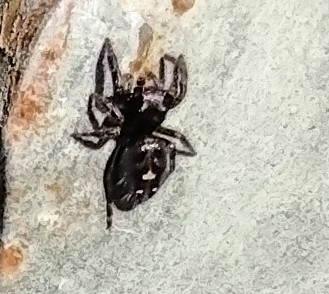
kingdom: Animalia
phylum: Arthropoda
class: Arachnida
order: Araneae
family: Salticidae
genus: Phidippus
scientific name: Phidippus audax
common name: Bold jumper
